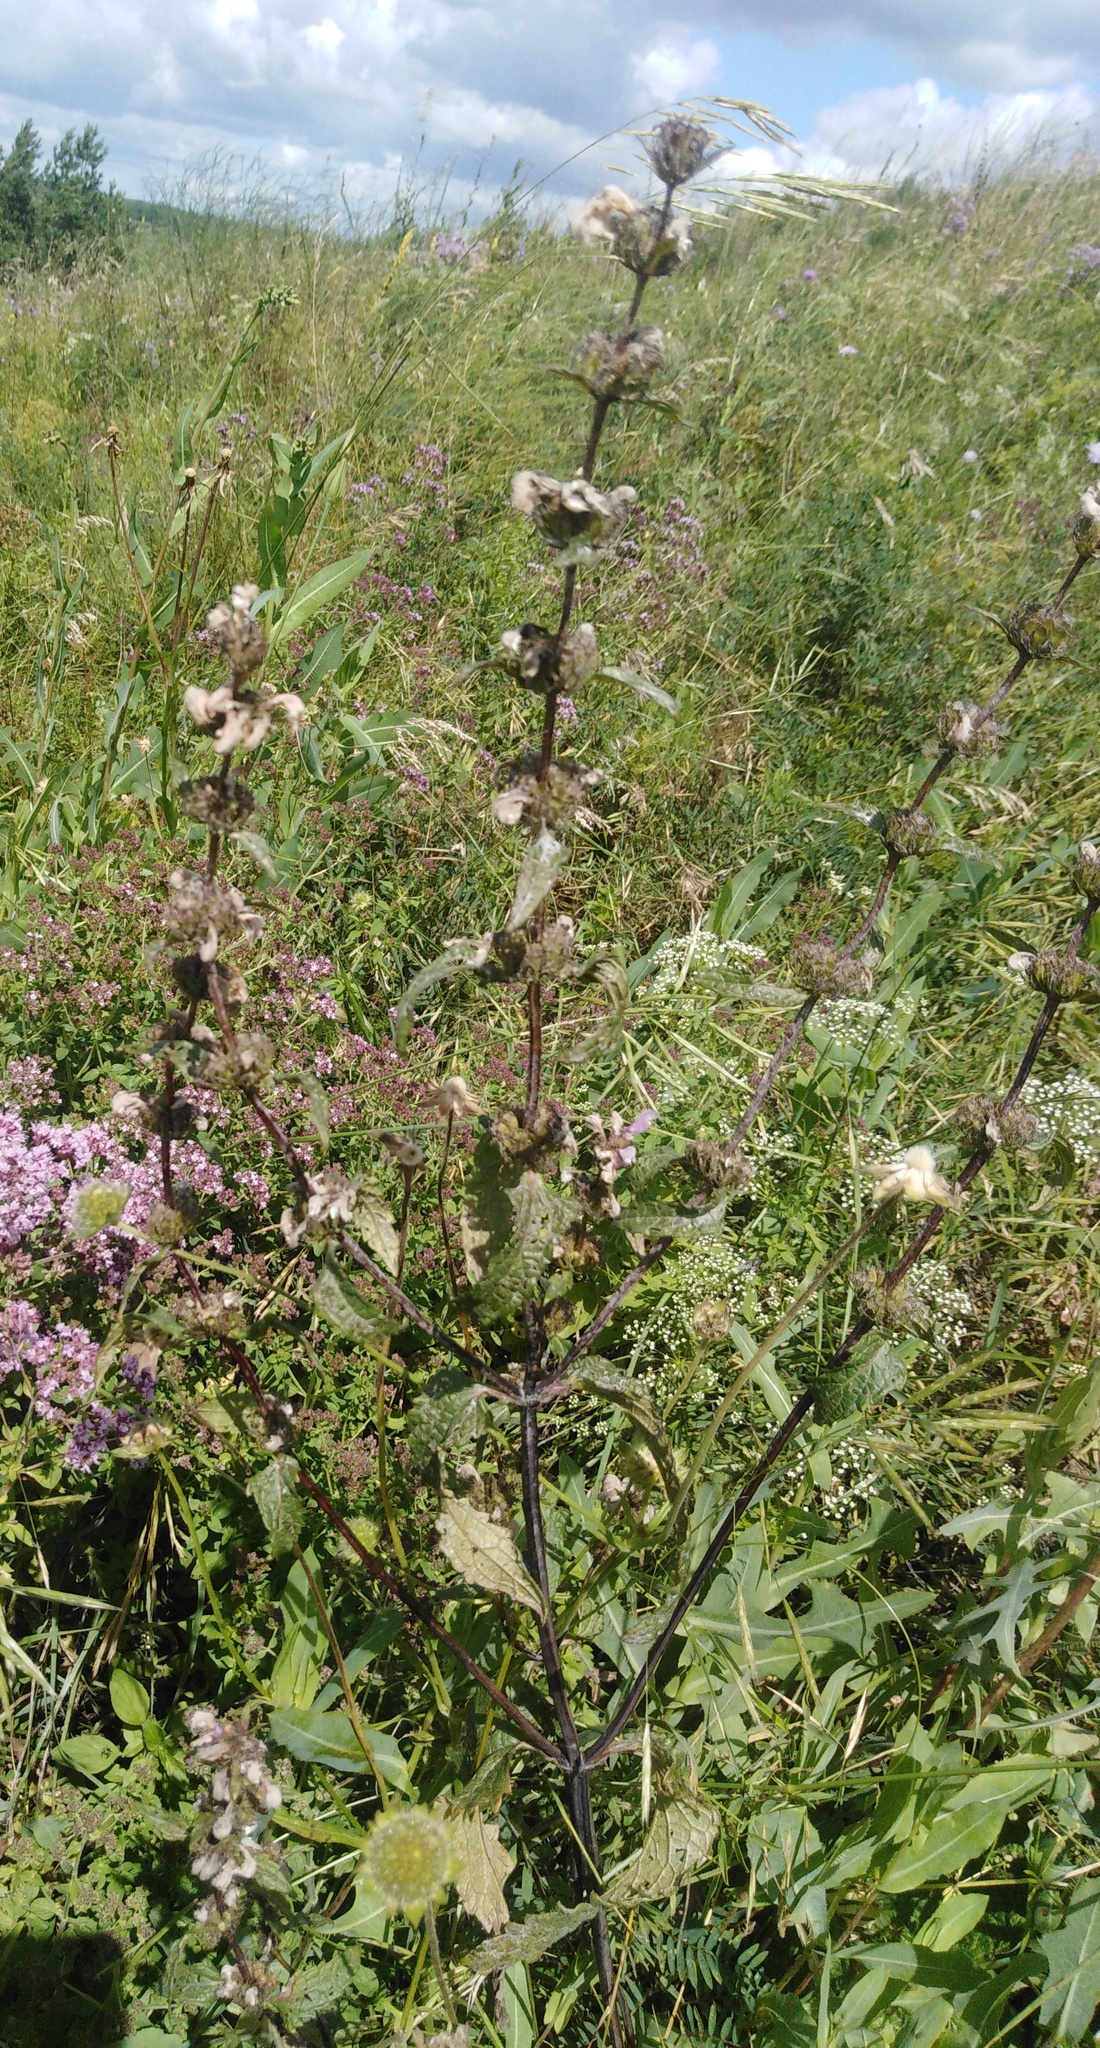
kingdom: Plantae
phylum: Tracheophyta
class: Magnoliopsida
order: Lamiales
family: Lamiaceae
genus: Phlomoides
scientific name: Phlomoides tuberosa
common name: Tuberous jerusalem sage
